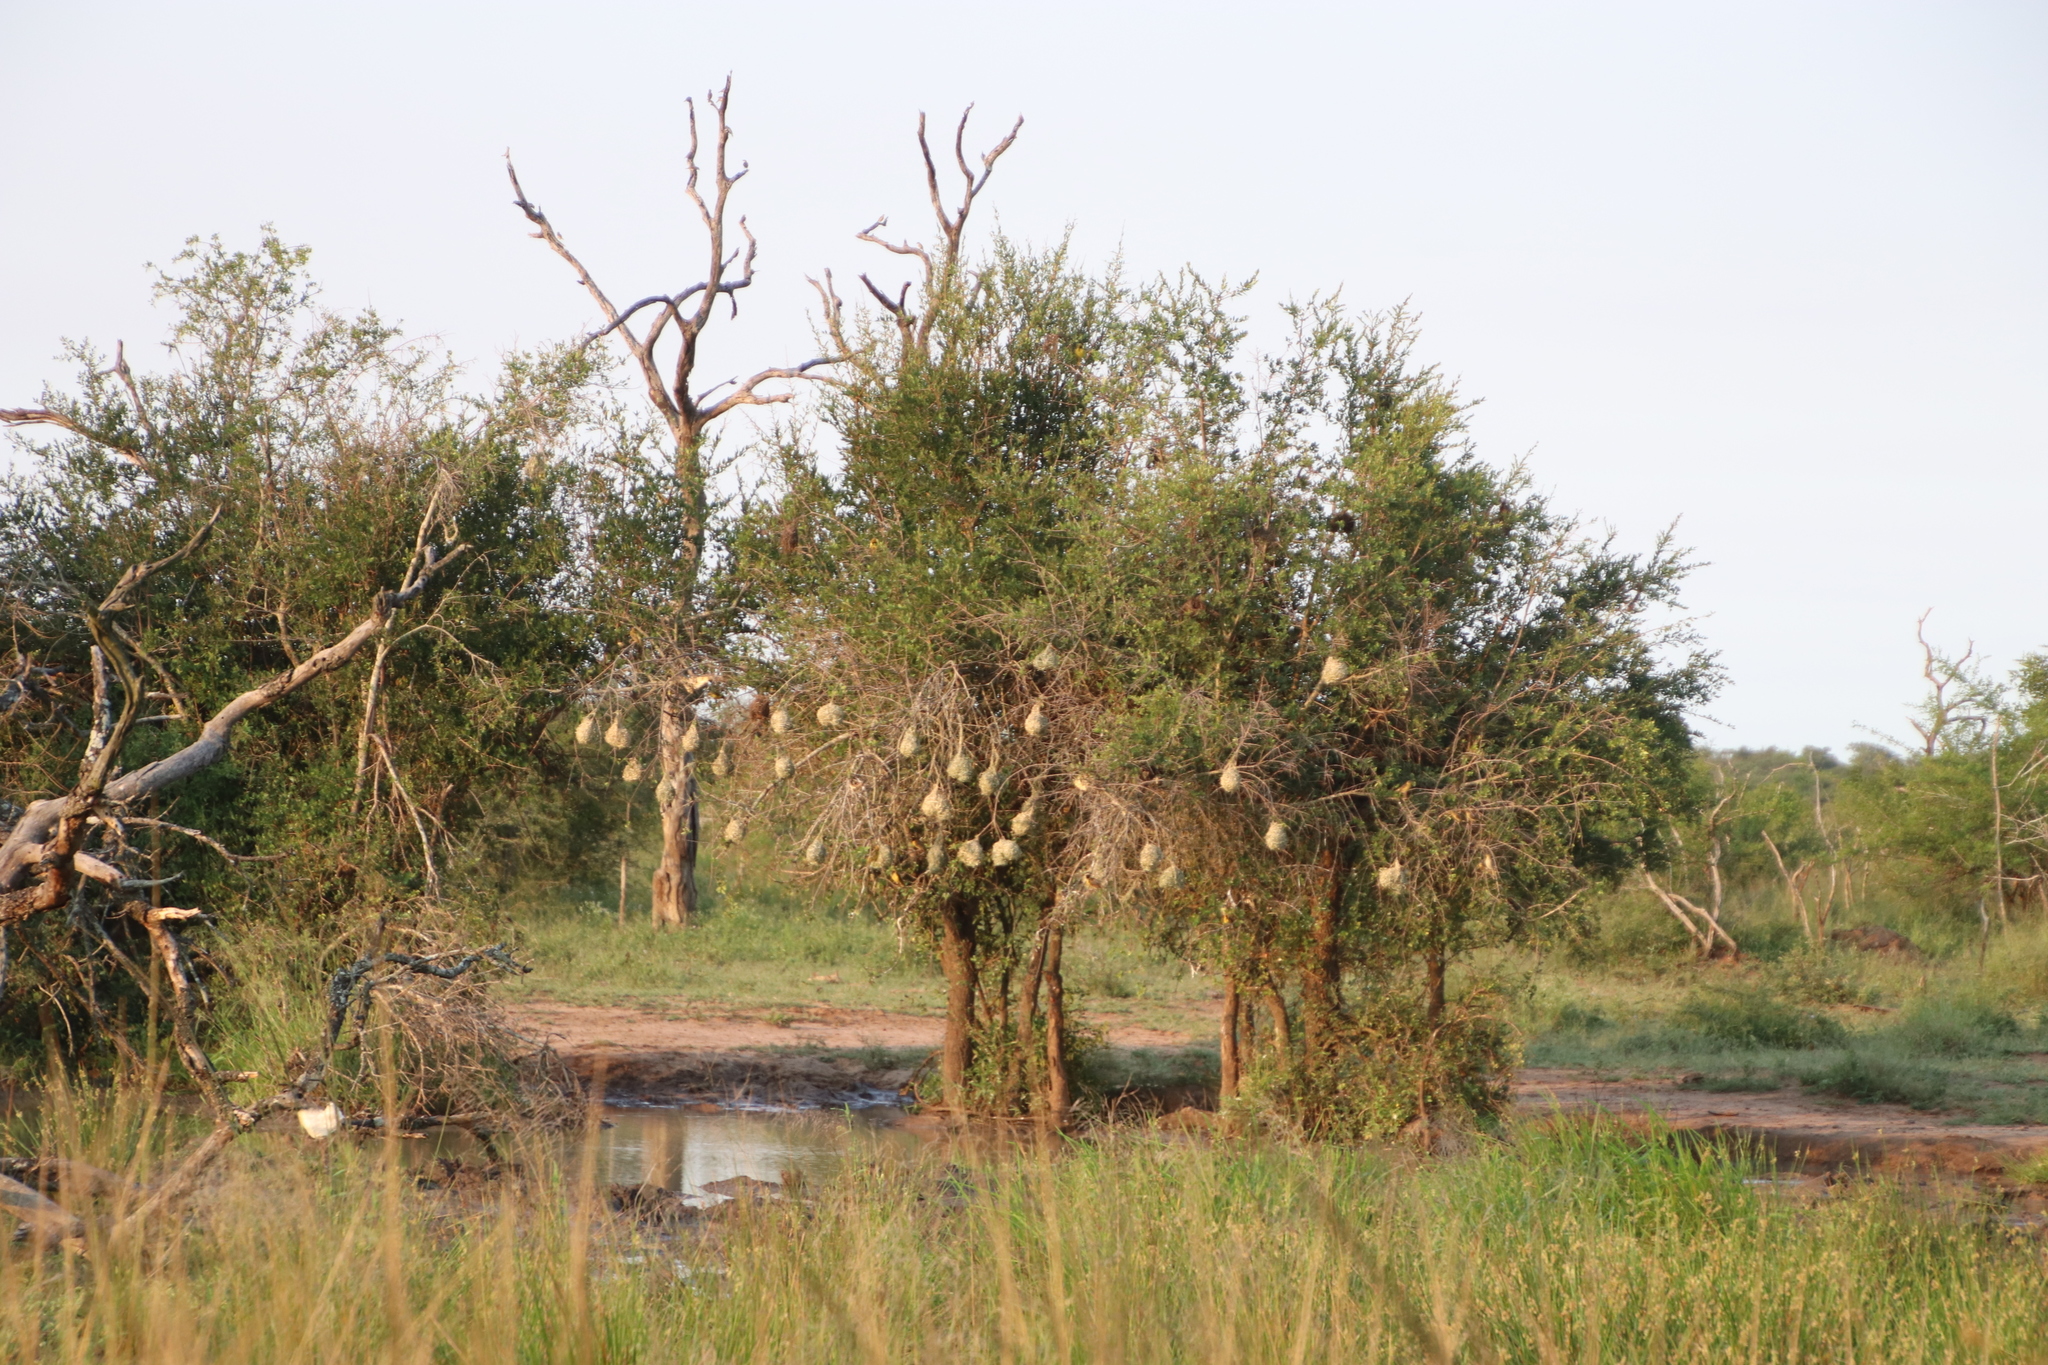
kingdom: Animalia
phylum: Chordata
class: Amphibia
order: Anura
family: Rhacophoridae
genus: Chiromantis
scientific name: Chiromantis xerampelina
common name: African gray treefrog
